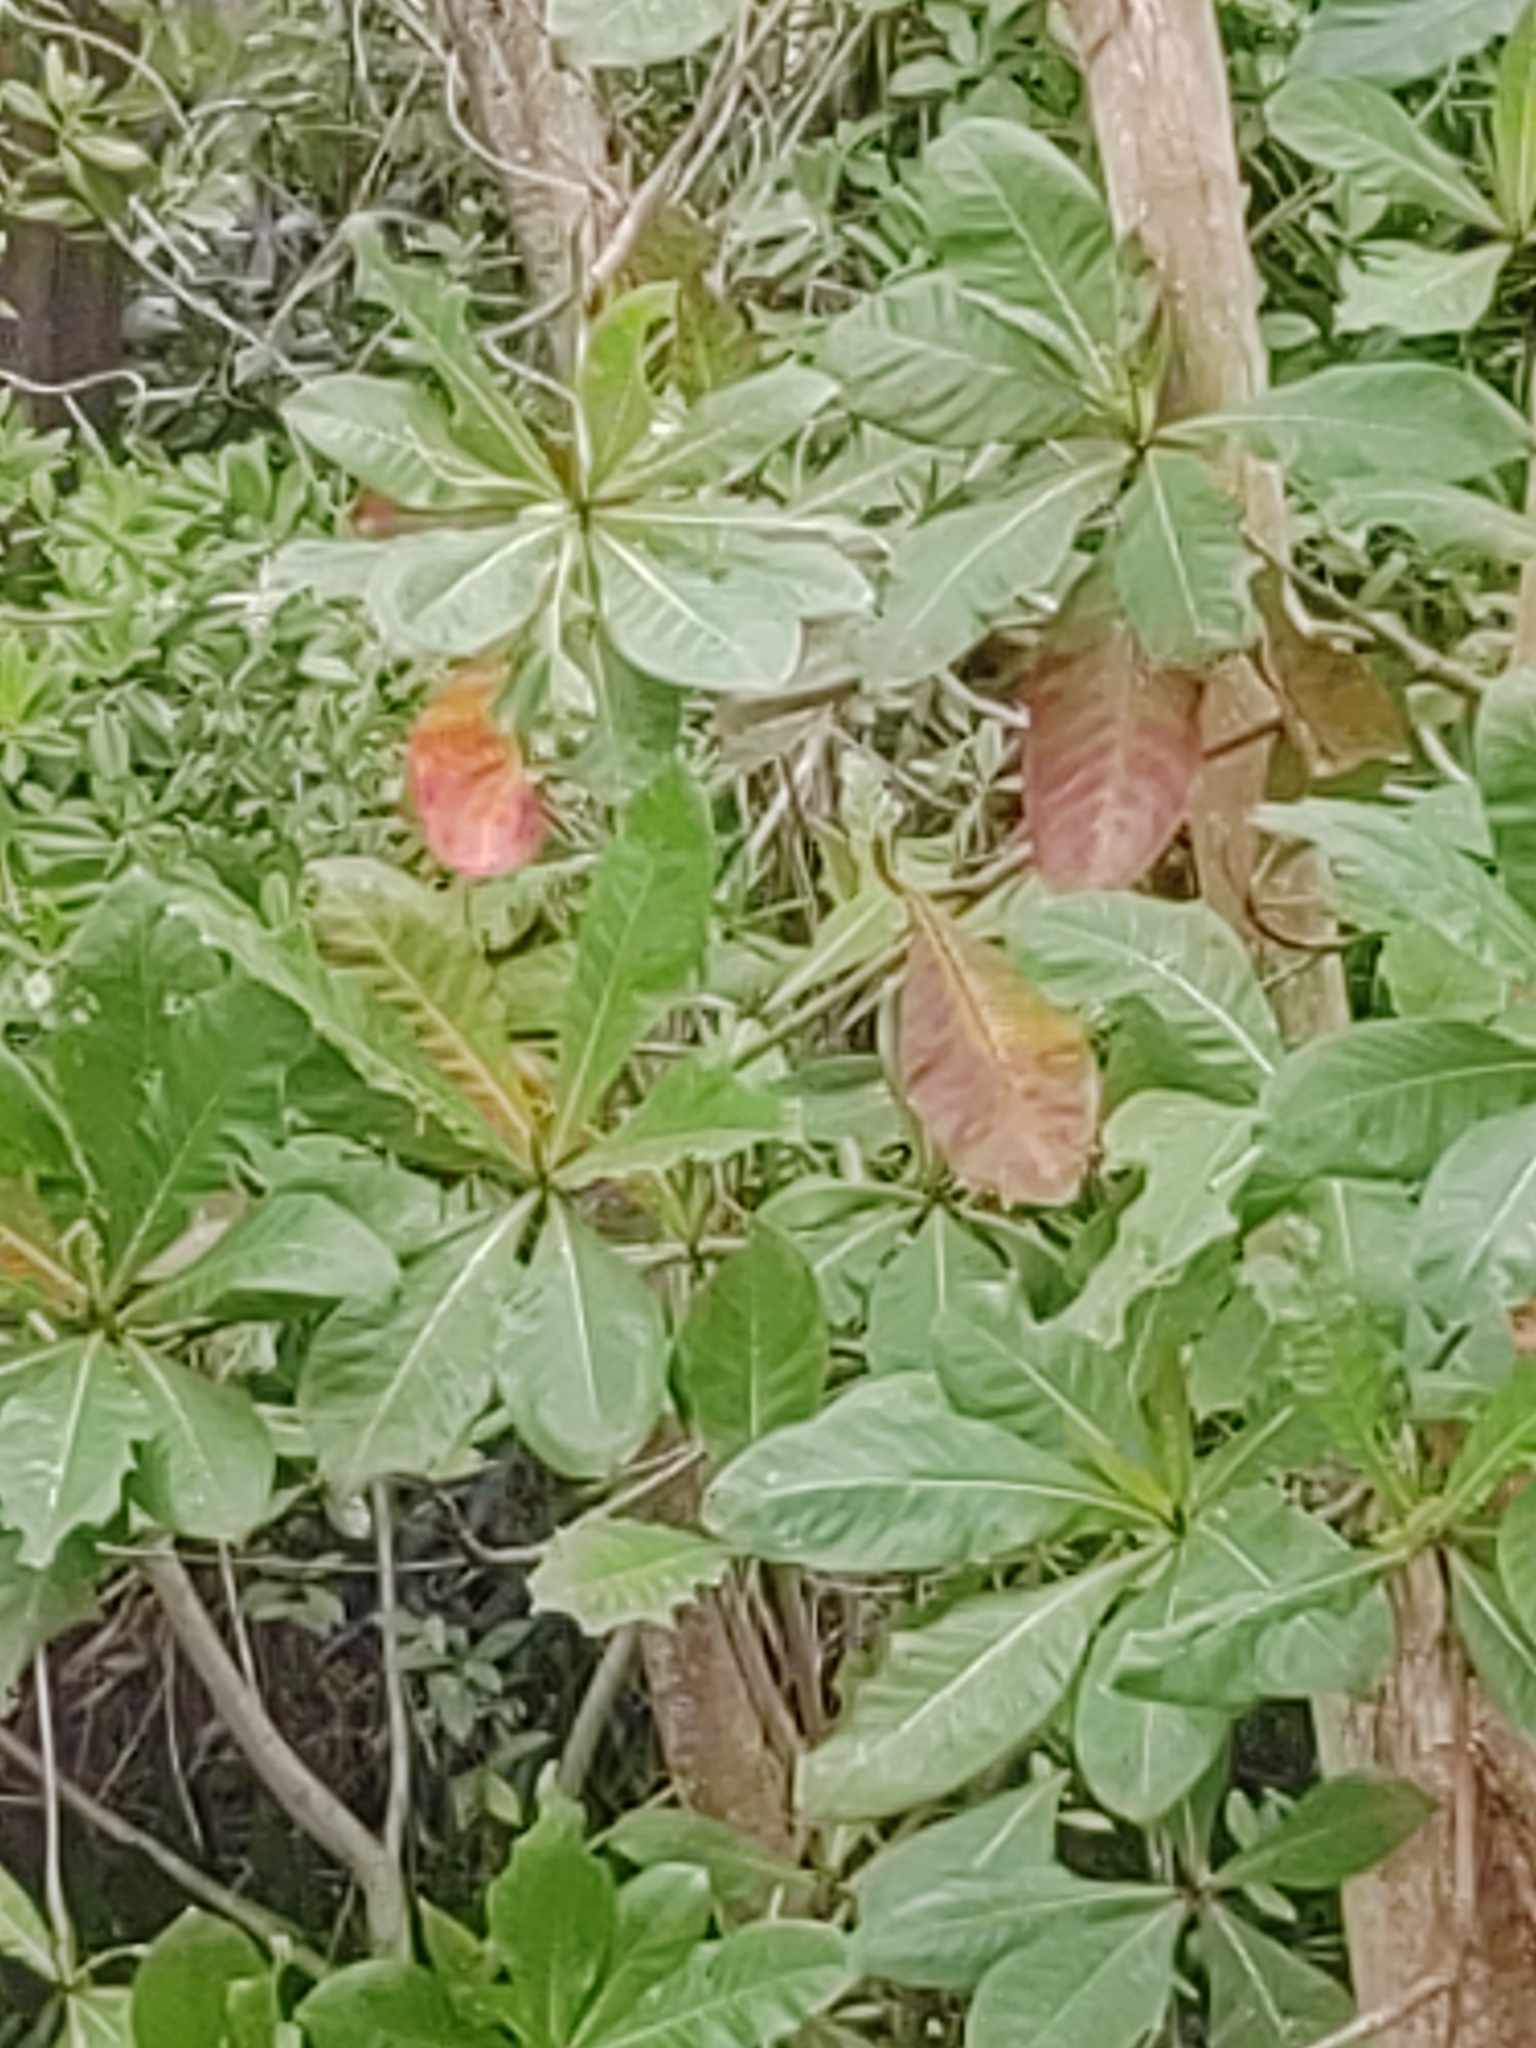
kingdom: Plantae
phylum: Tracheophyta
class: Magnoliopsida
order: Myrtales
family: Combretaceae
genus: Terminalia
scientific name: Terminalia catappa
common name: Tropical almond
